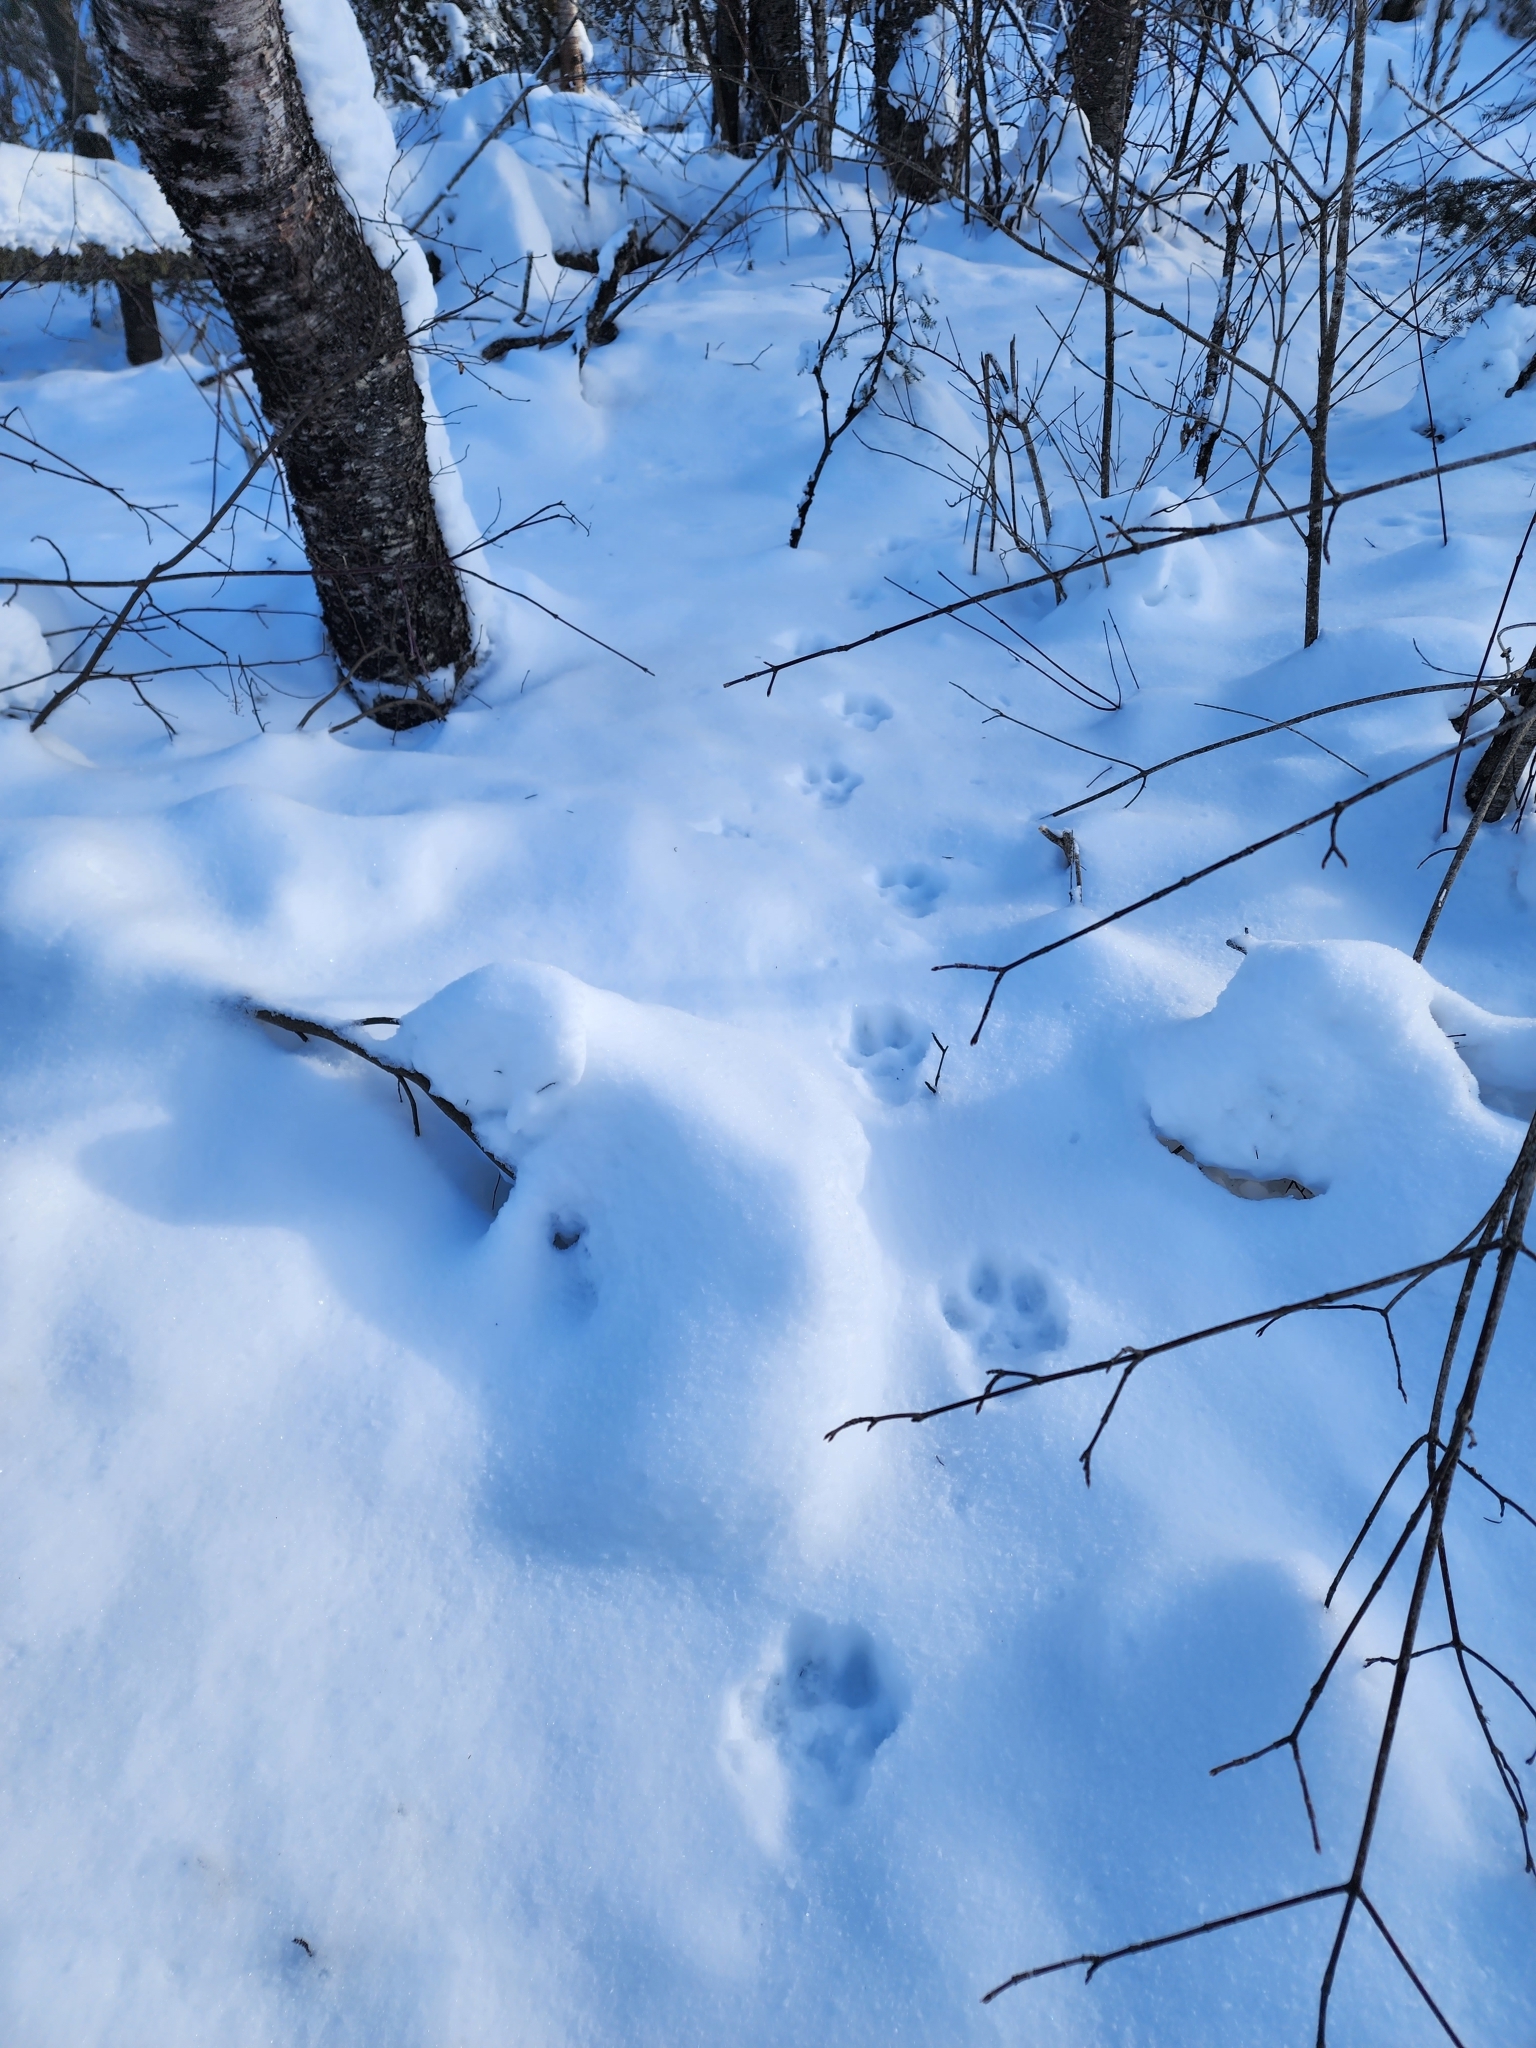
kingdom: Animalia
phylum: Chordata
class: Mammalia
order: Carnivora
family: Felidae
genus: Lynx
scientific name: Lynx canadensis
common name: Canadian lynx
